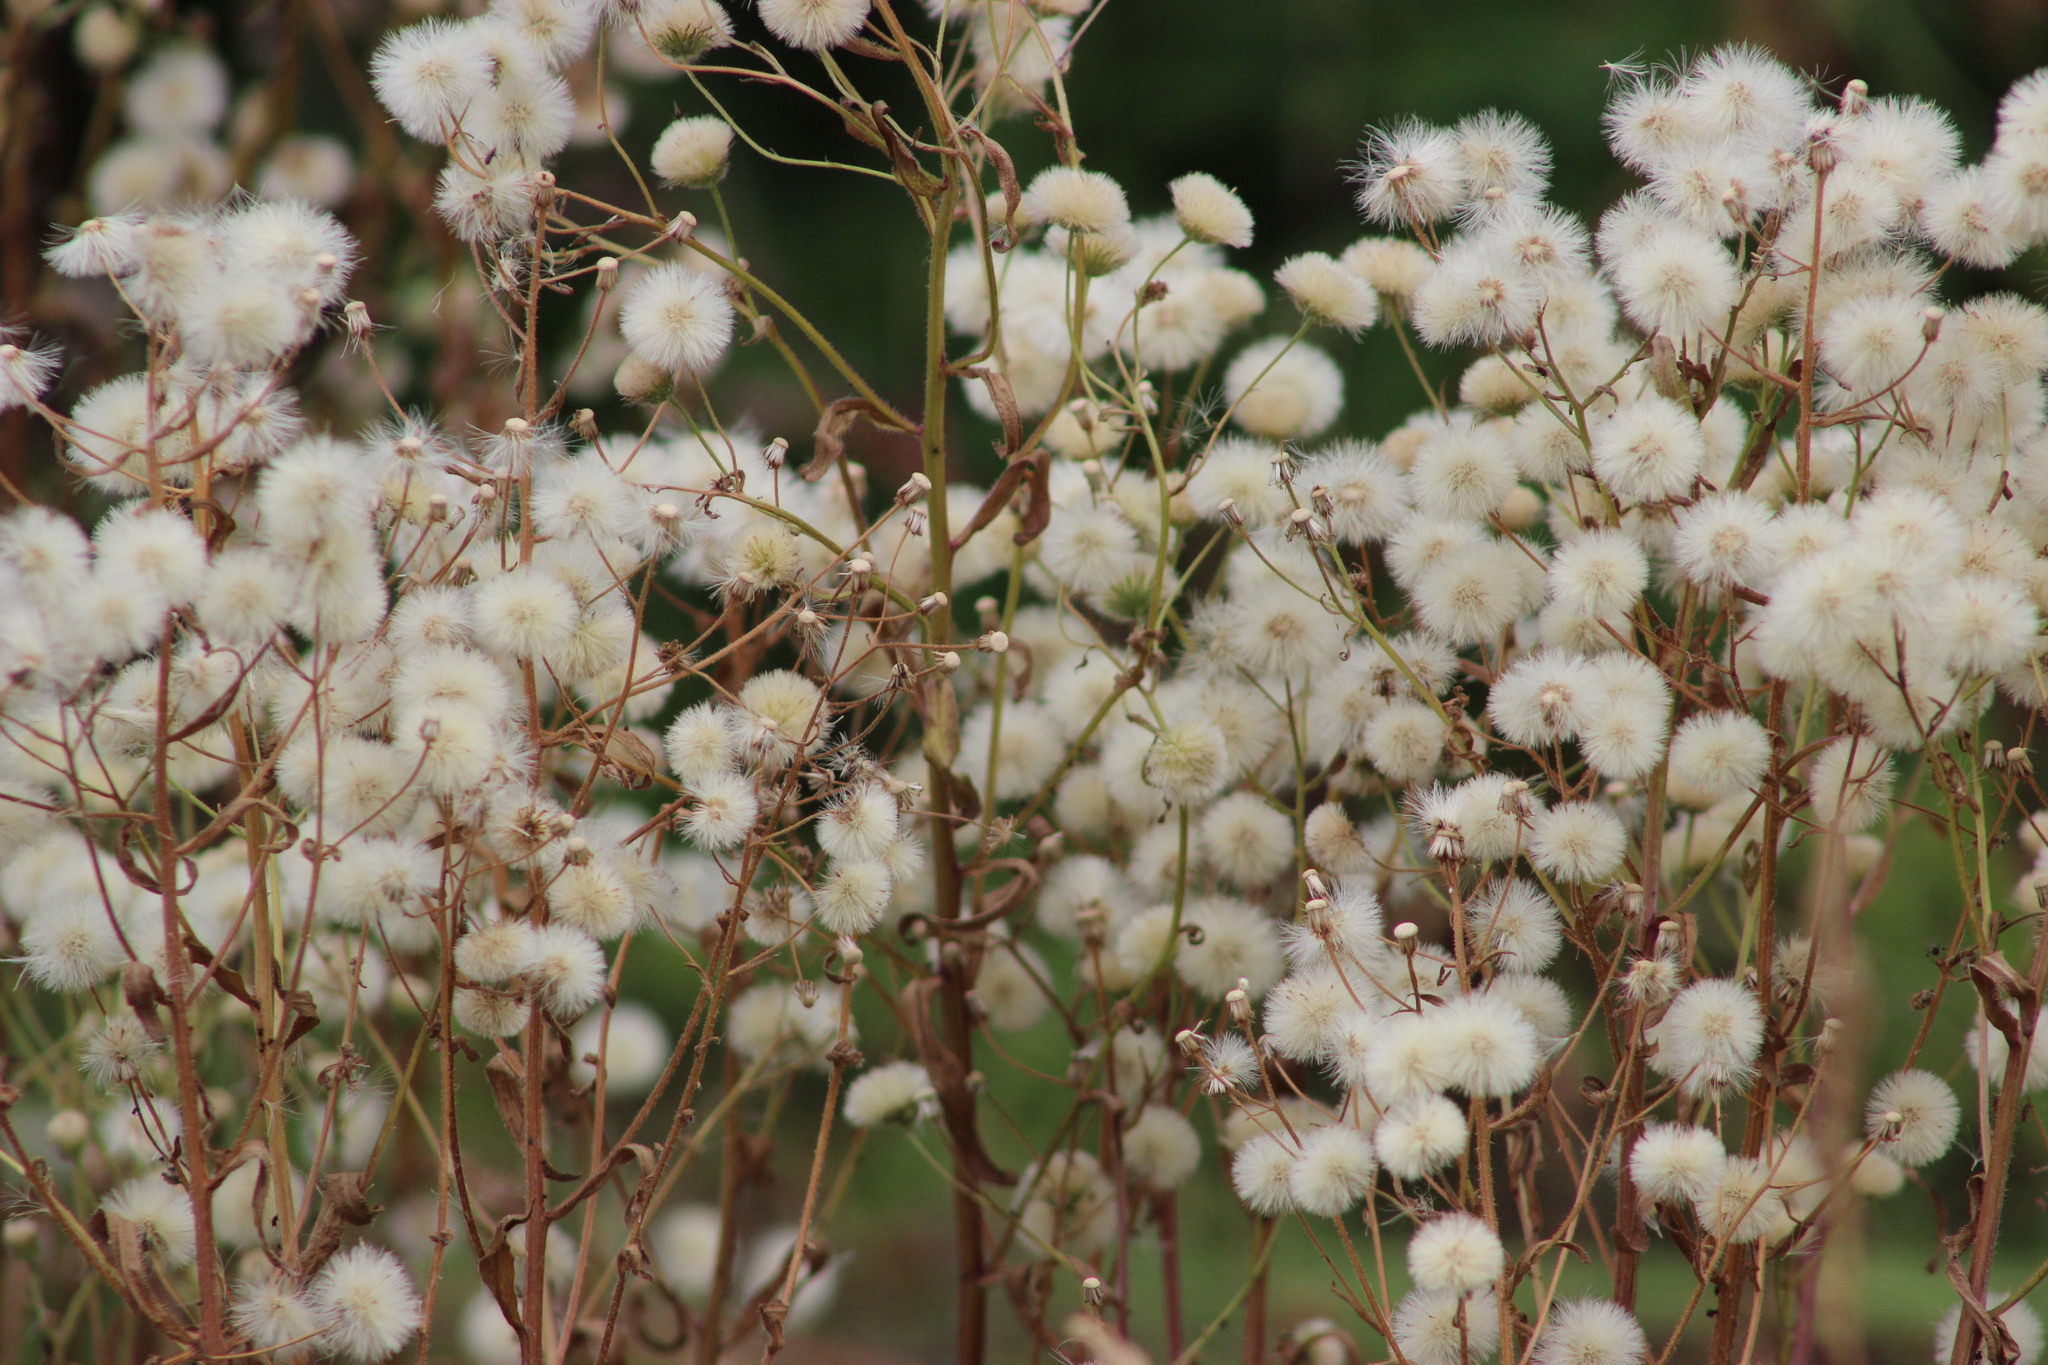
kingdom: Plantae
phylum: Tracheophyta
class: Magnoliopsida
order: Asterales
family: Asteraceae
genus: Erigeron
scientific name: Erigeron acris
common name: Blue fleabane
